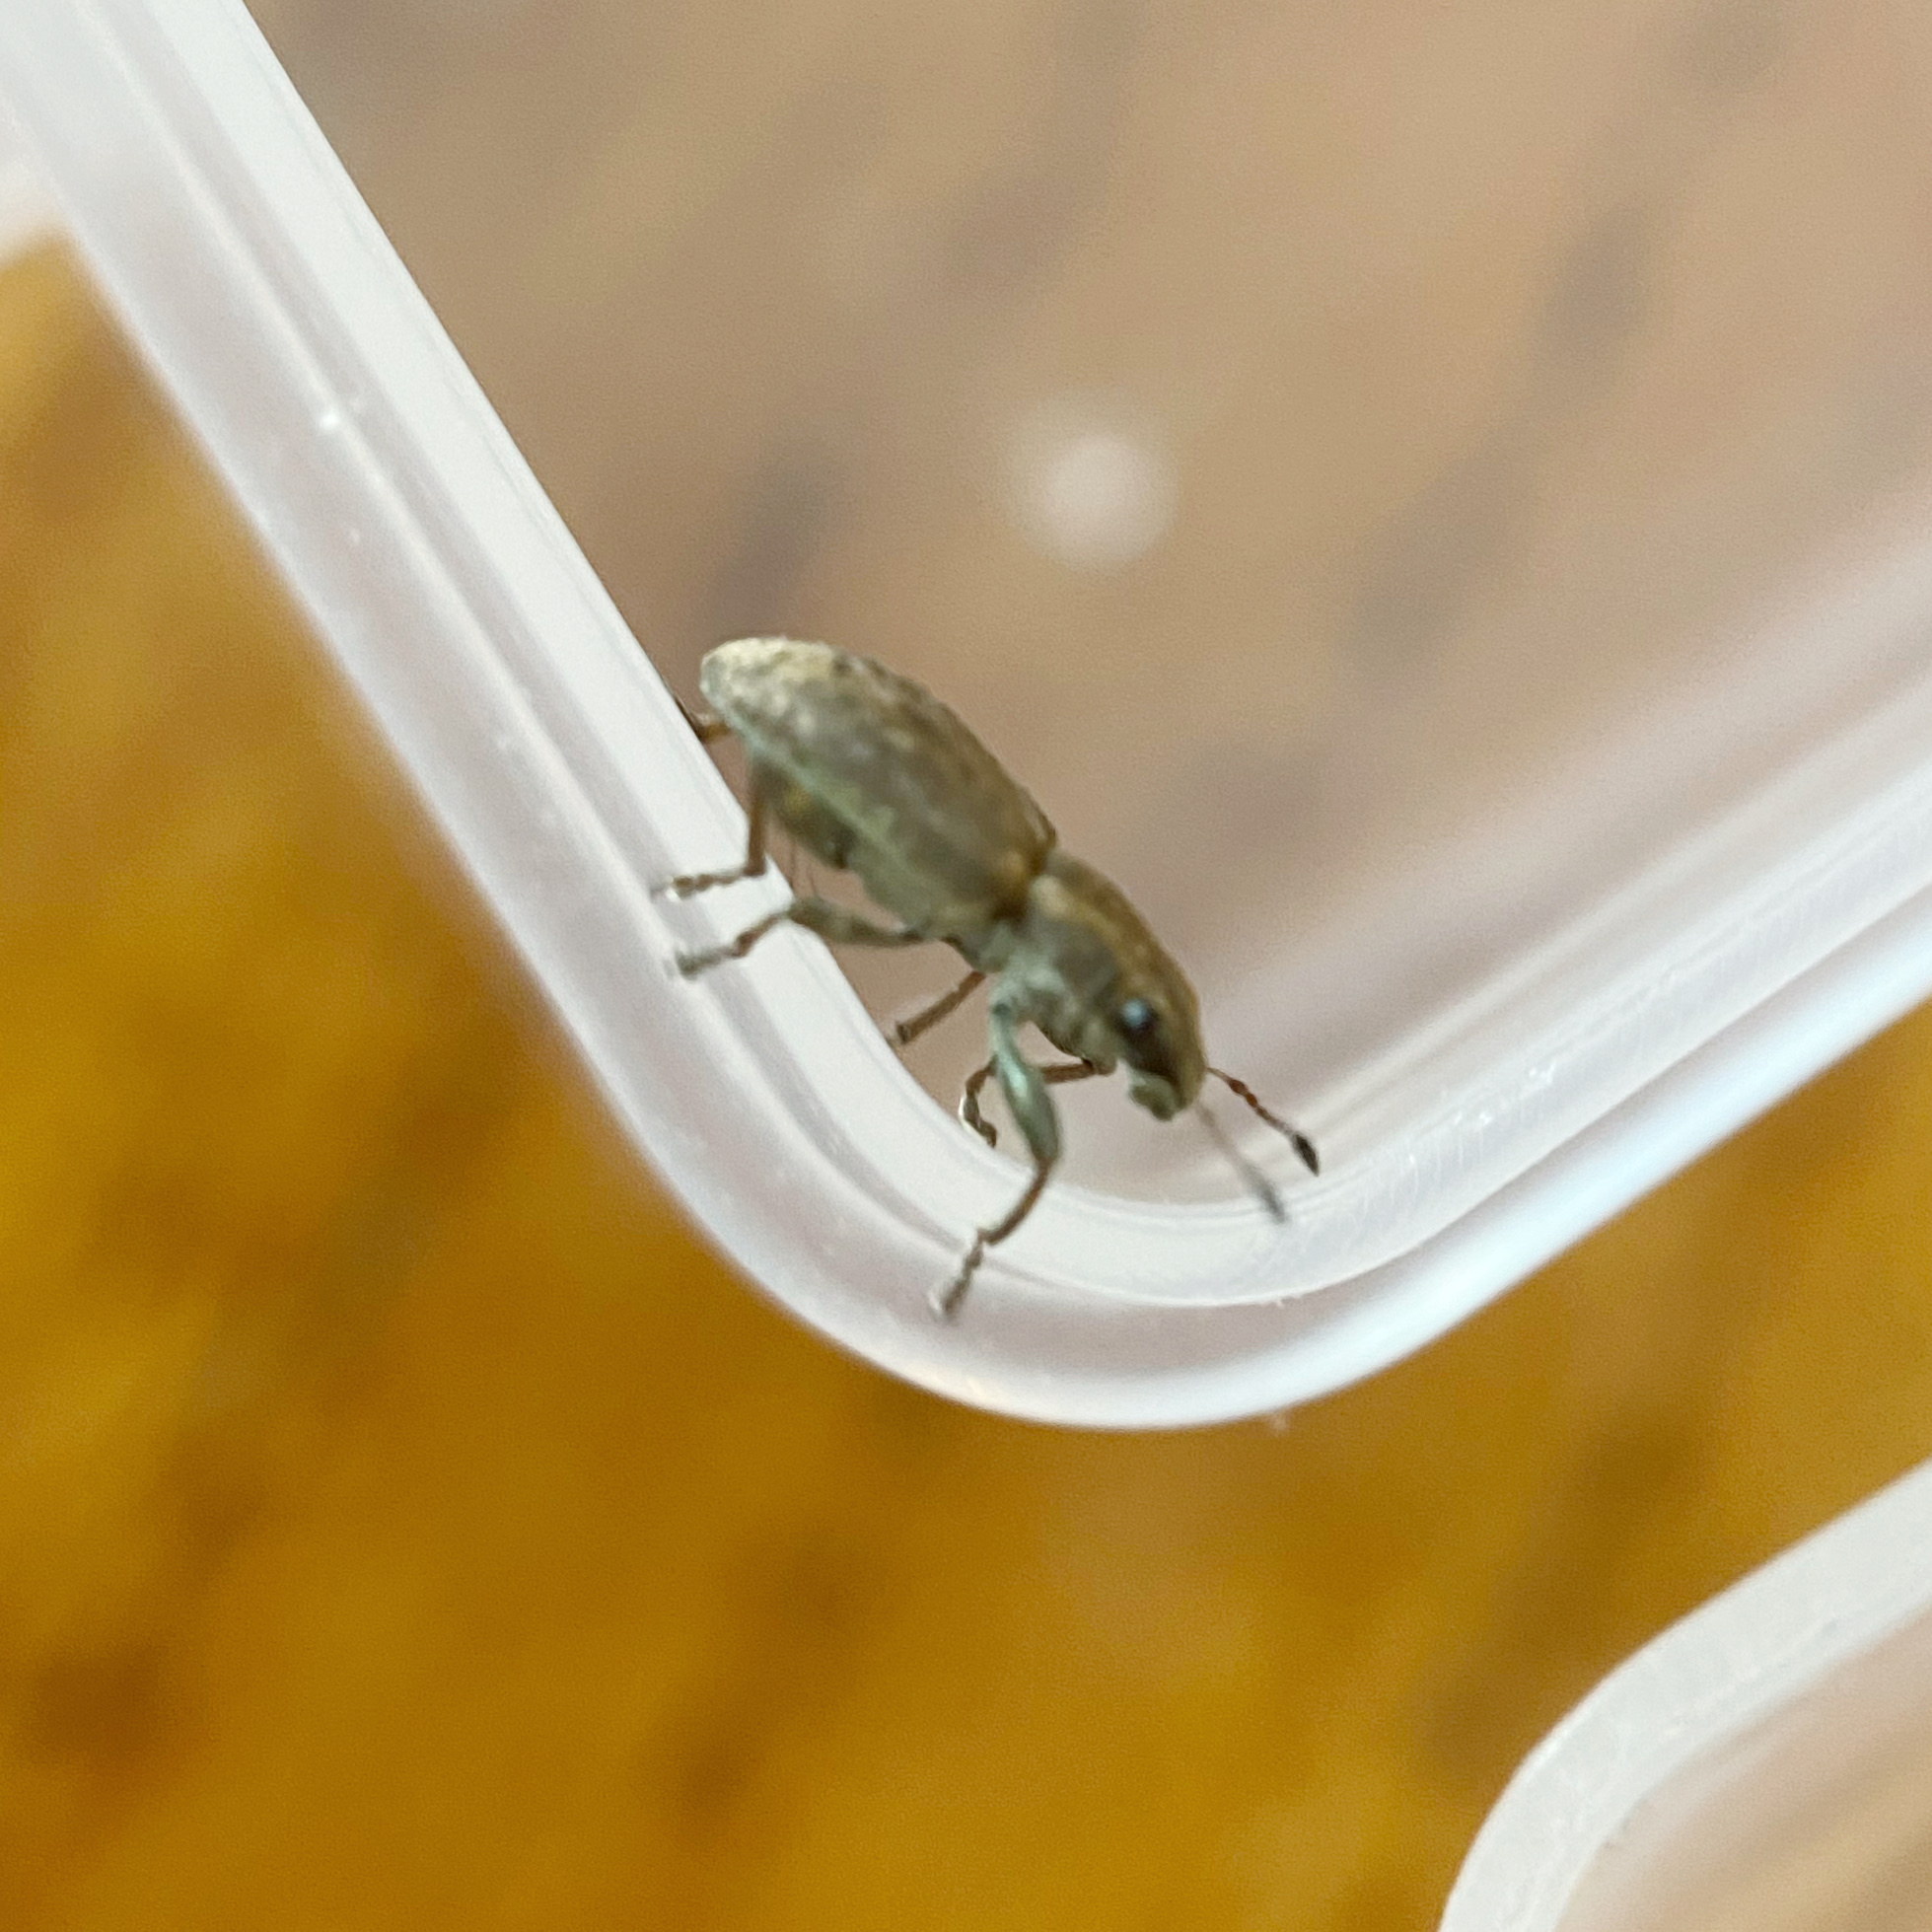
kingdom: Animalia
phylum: Arthropoda
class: Insecta
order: Coleoptera
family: Curculionidae
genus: Sitona
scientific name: Sitona obsoletus
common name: Weevil
